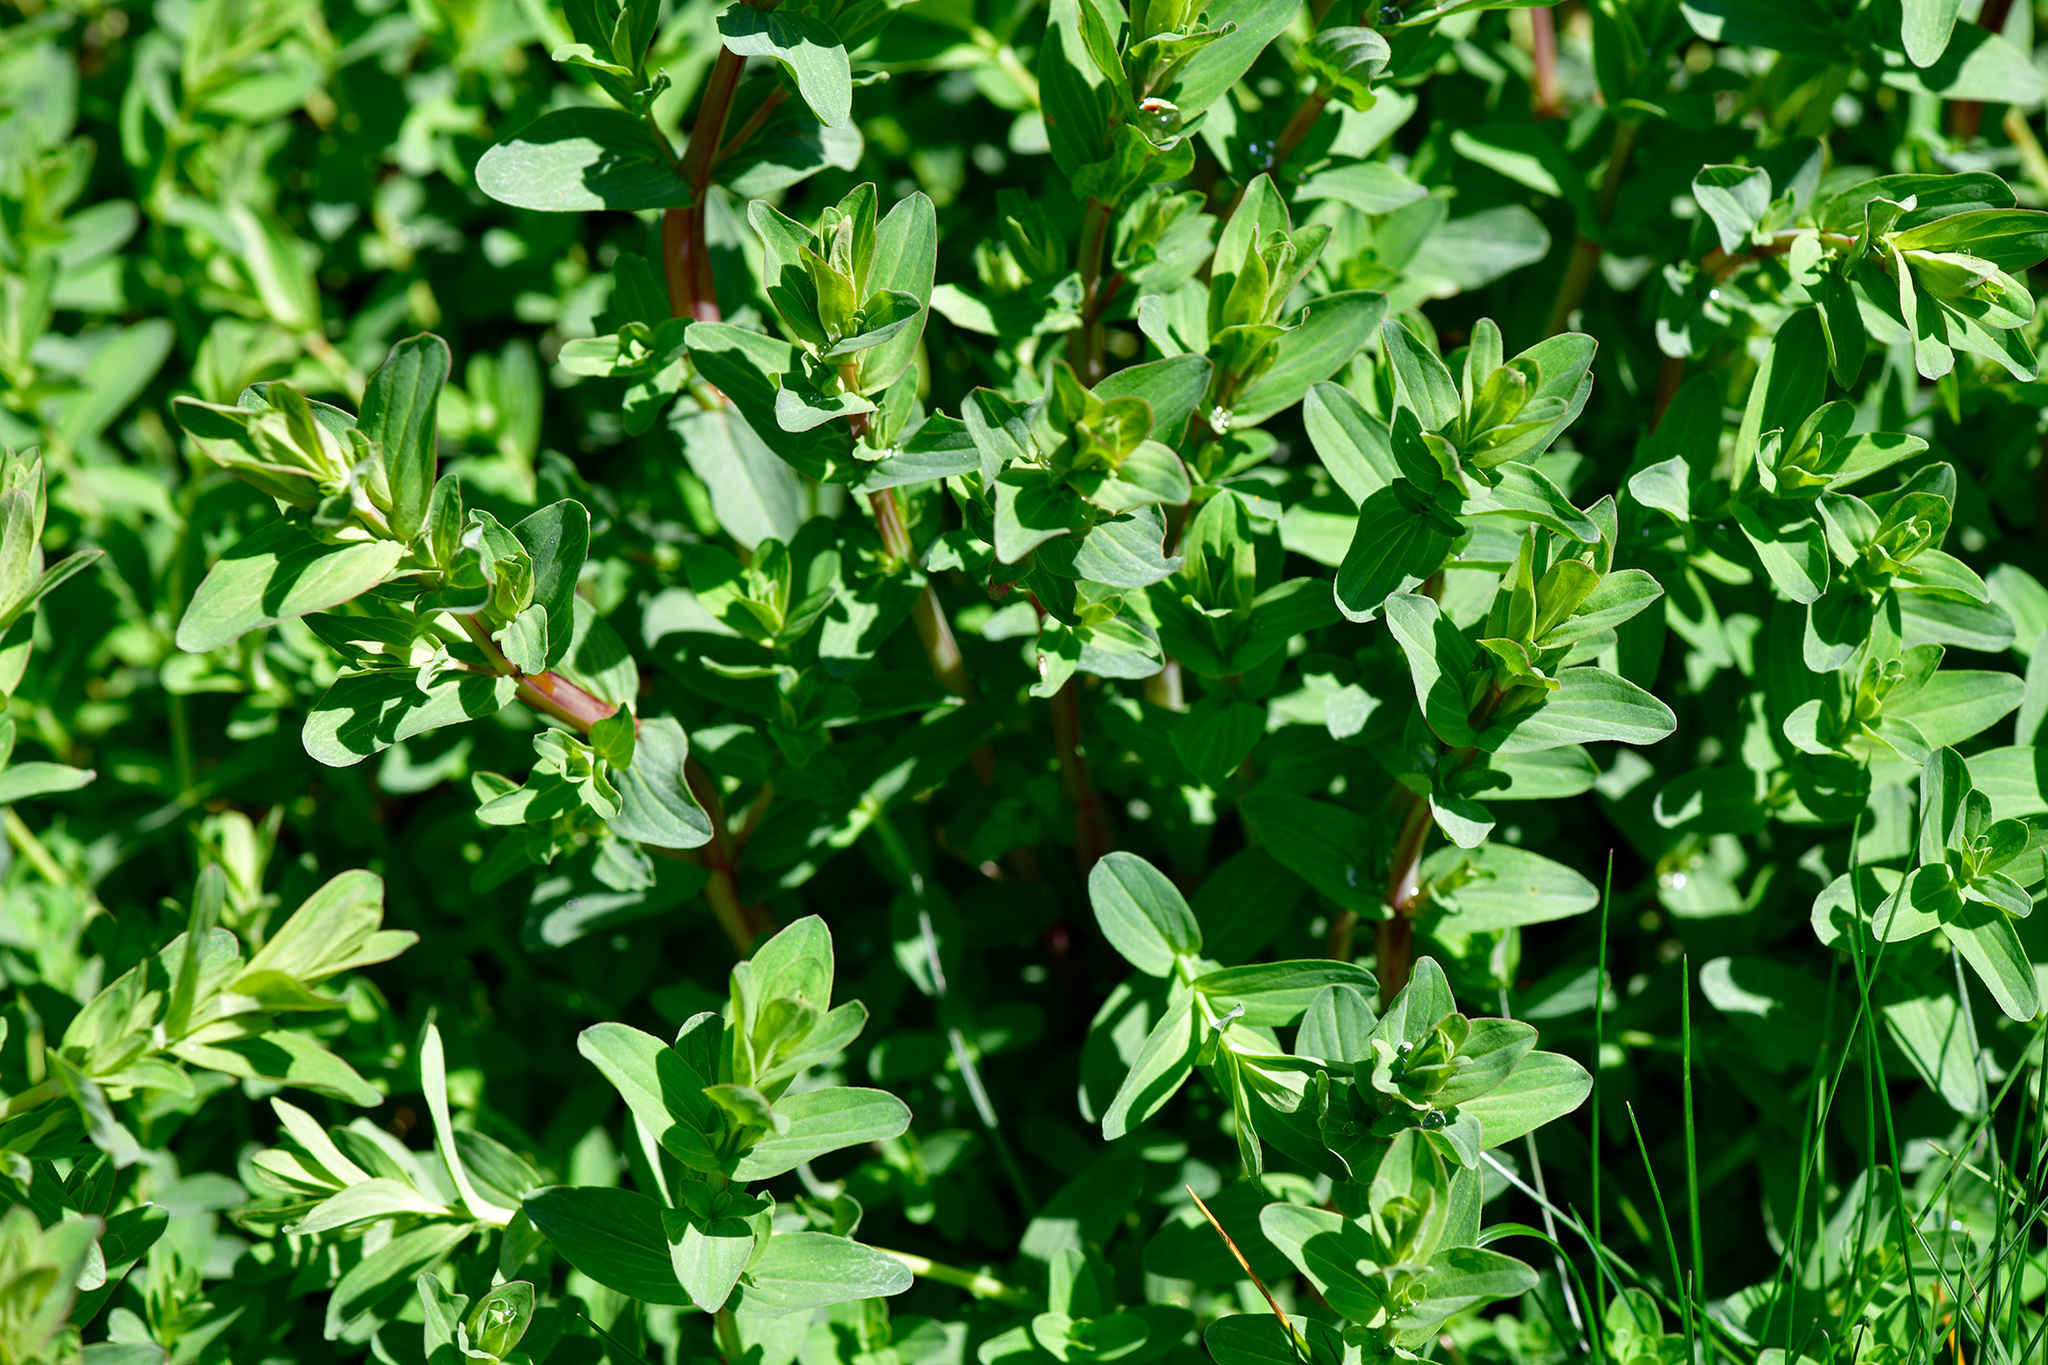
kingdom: Plantae
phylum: Tracheophyta
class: Magnoliopsida
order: Malpighiales
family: Hypericaceae
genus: Hypericum
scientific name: Hypericum perforatum
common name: Common st. johnswort
